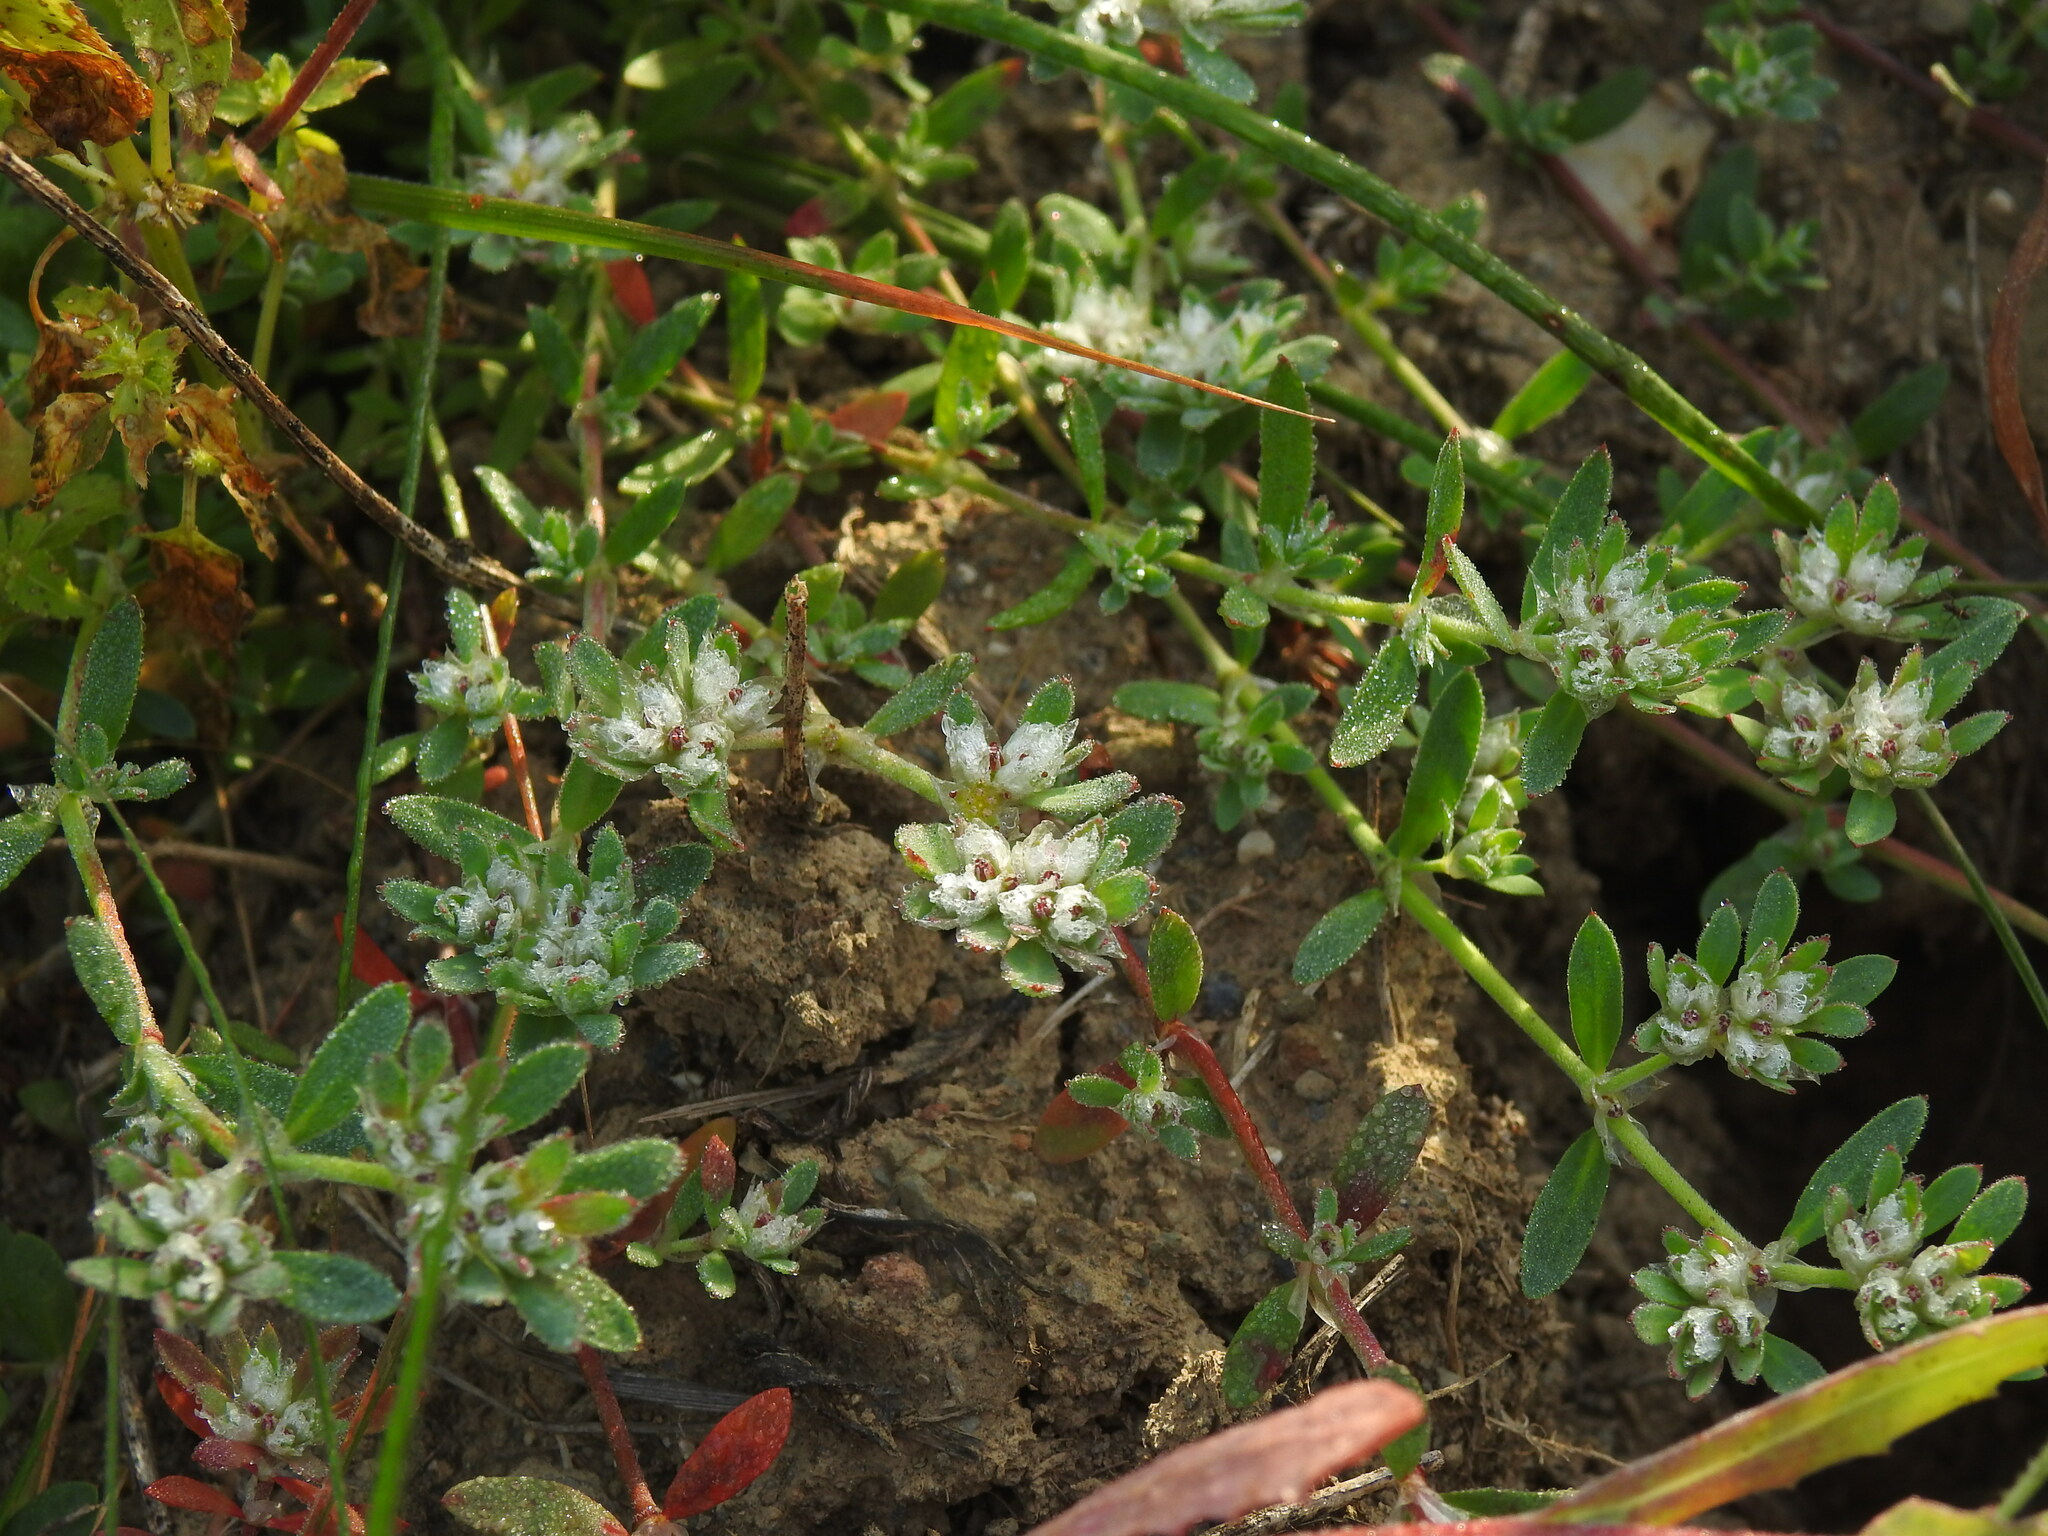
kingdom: Plantae
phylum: Tracheophyta
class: Magnoliopsida
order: Caryophyllales
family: Caryophyllaceae
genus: Paronychia
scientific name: Paronychia argentea
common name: Silver nailroot
